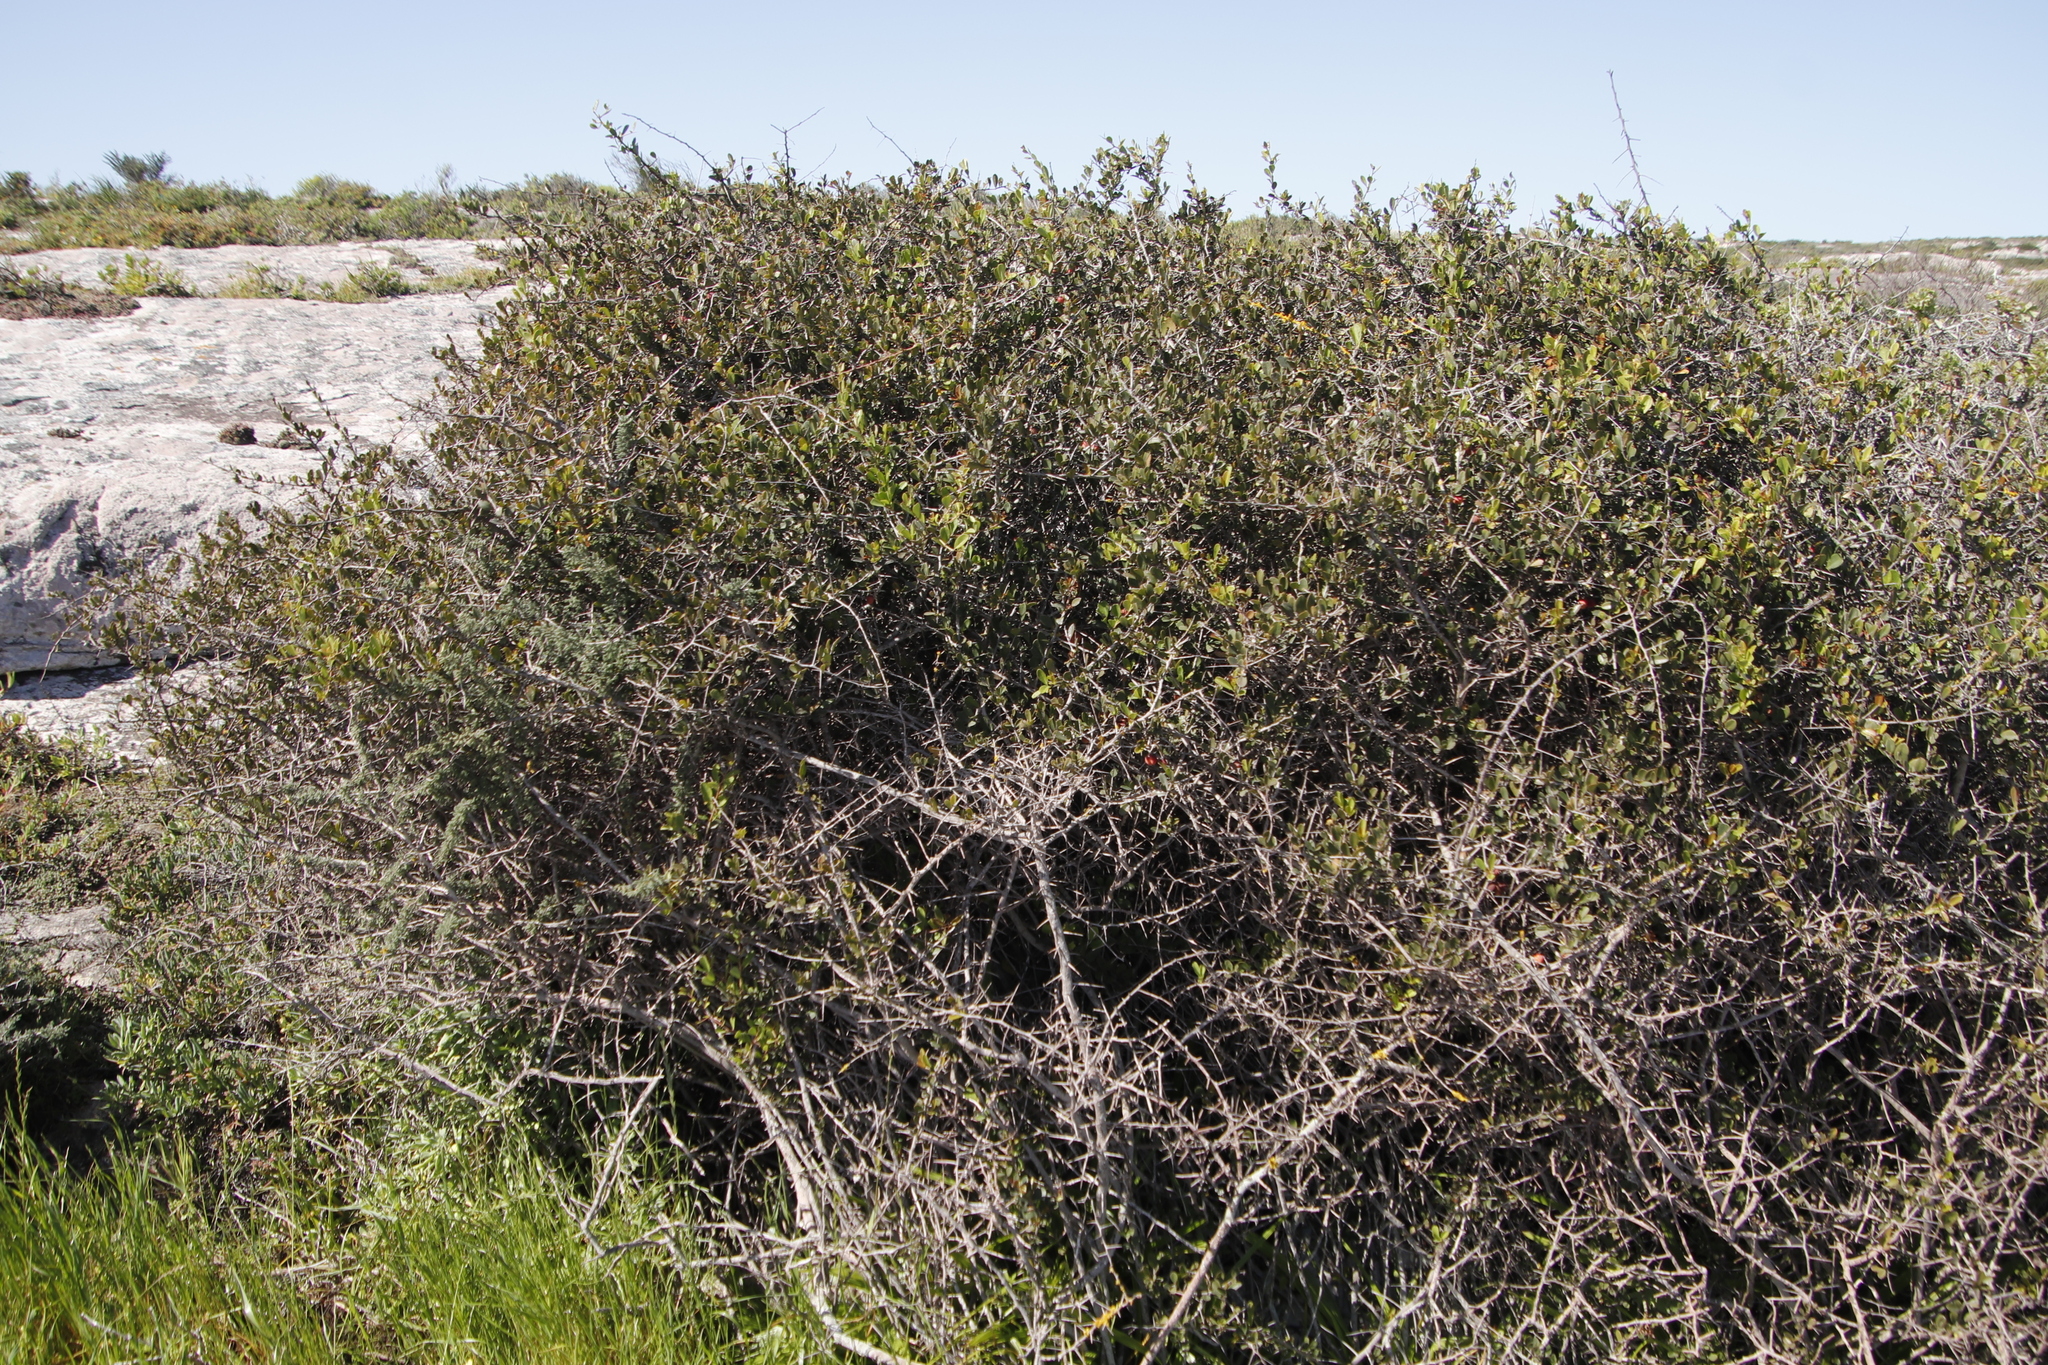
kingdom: Plantae
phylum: Tracheophyta
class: Magnoliopsida
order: Celastrales
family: Celastraceae
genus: Putterlickia
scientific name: Putterlickia pyracantha
